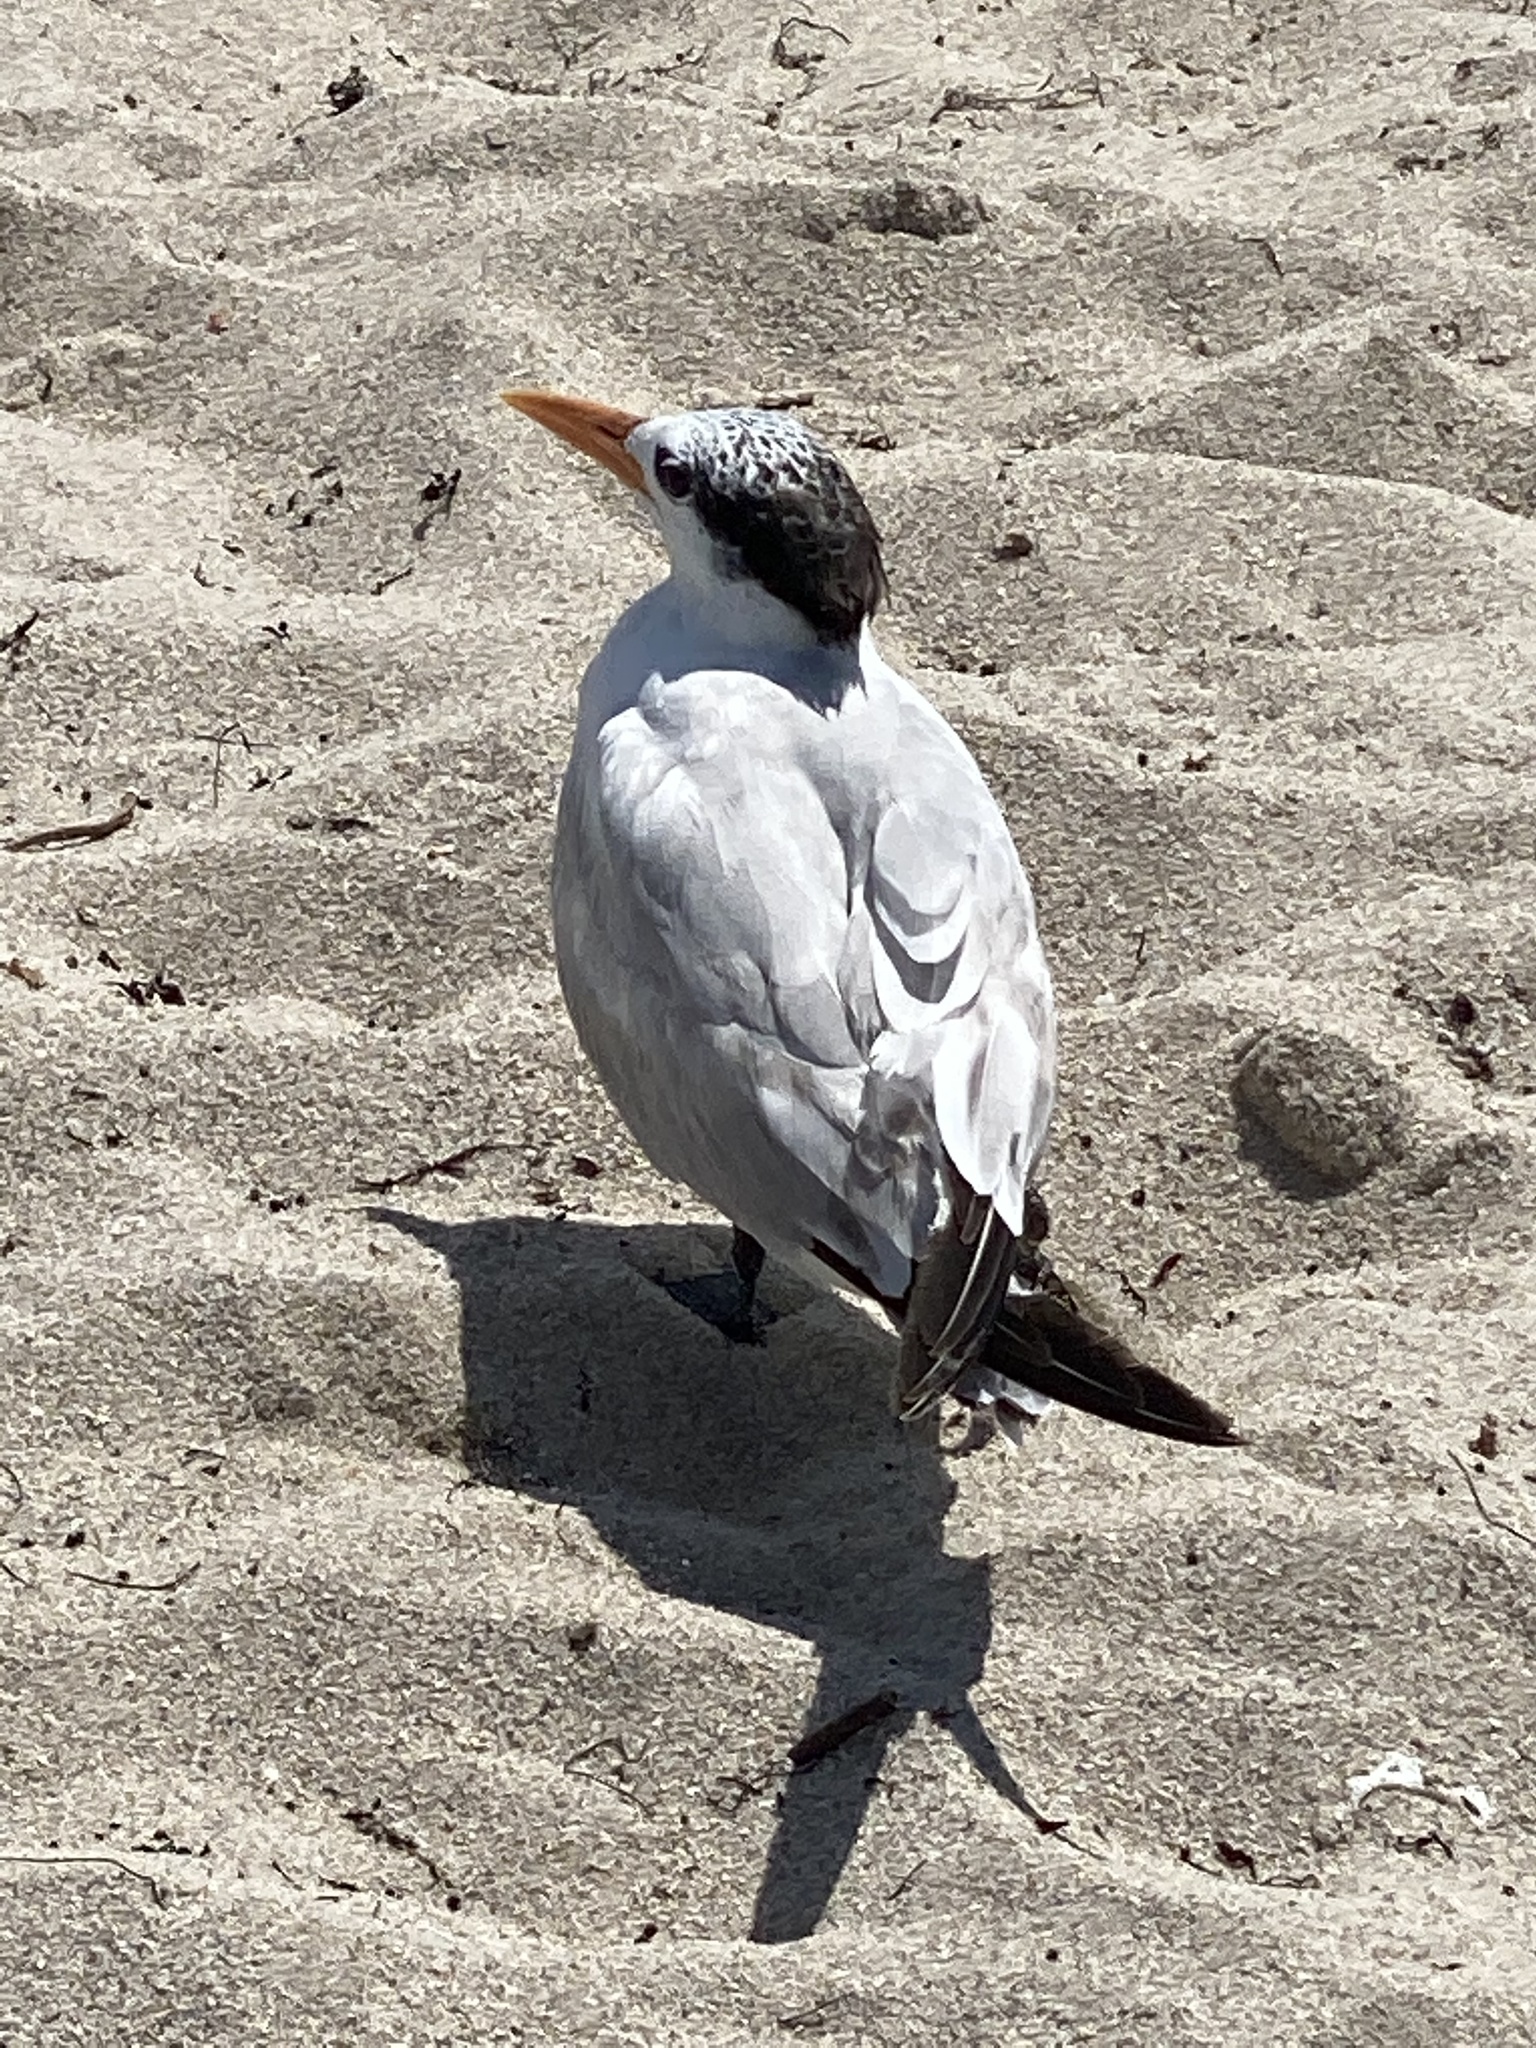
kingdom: Animalia
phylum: Chordata
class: Aves
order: Charadriiformes
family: Laridae
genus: Thalasseus
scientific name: Thalasseus maximus
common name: Royal tern
